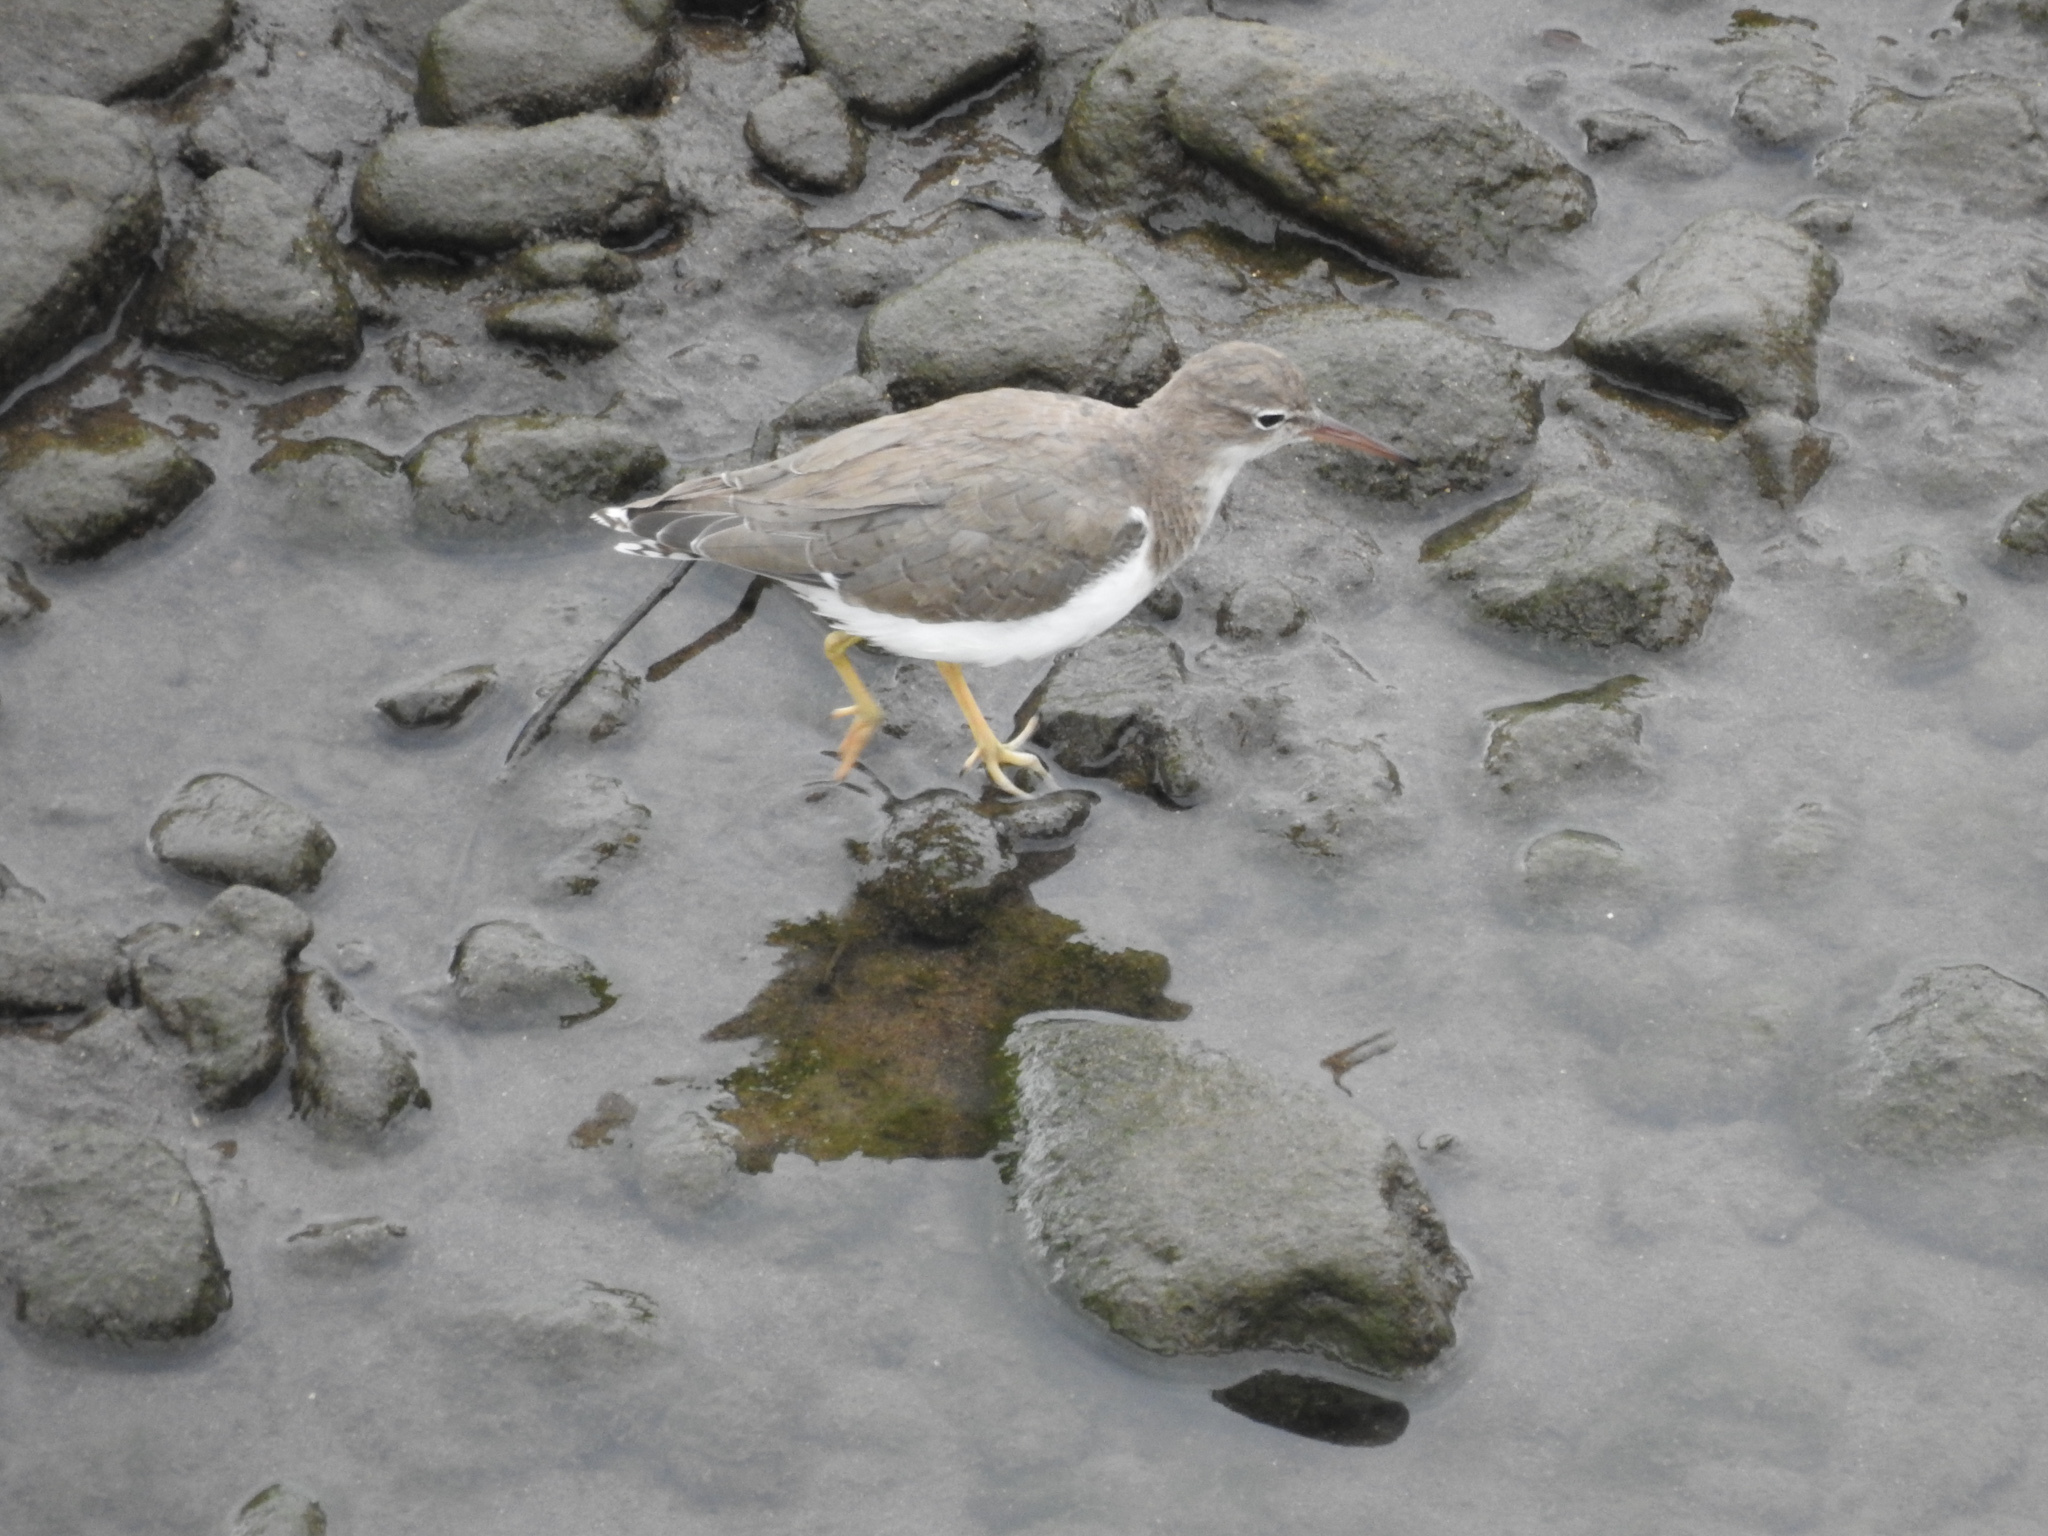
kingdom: Animalia
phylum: Chordata
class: Aves
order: Charadriiformes
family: Scolopacidae
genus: Actitis
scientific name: Actitis macularius
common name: Spotted sandpiper
